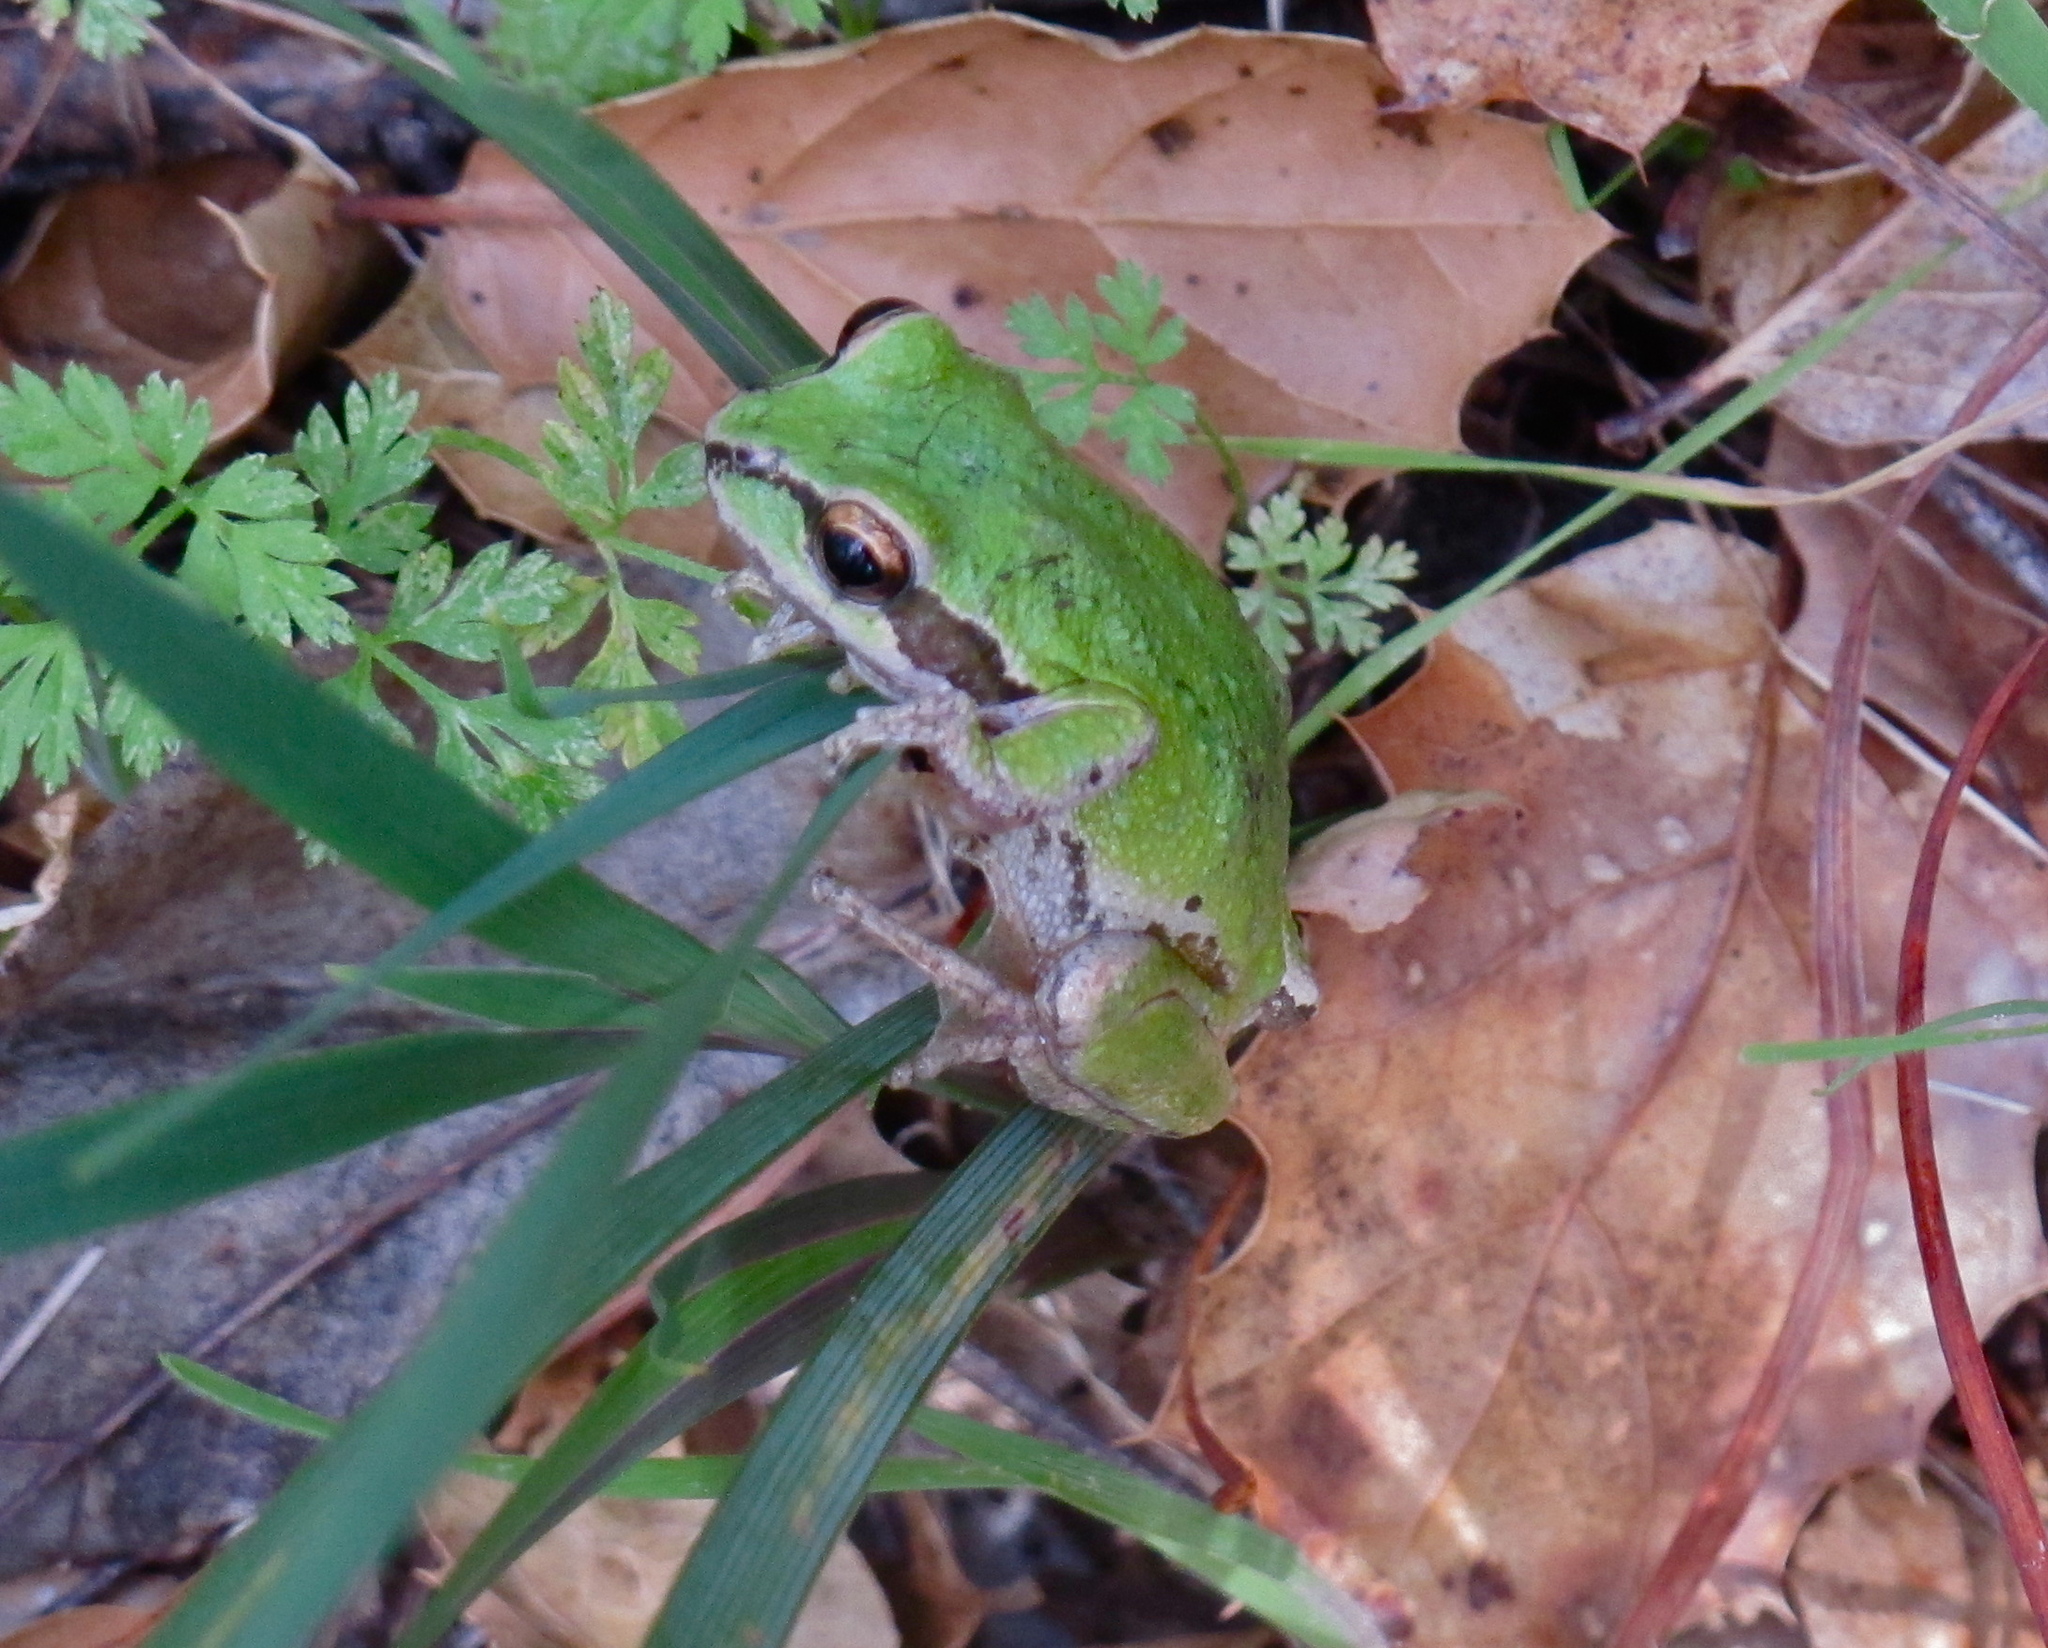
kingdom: Animalia
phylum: Chordata
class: Amphibia
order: Anura
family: Hylidae
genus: Pseudacris
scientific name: Pseudacris regilla
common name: Pacific chorus frog
